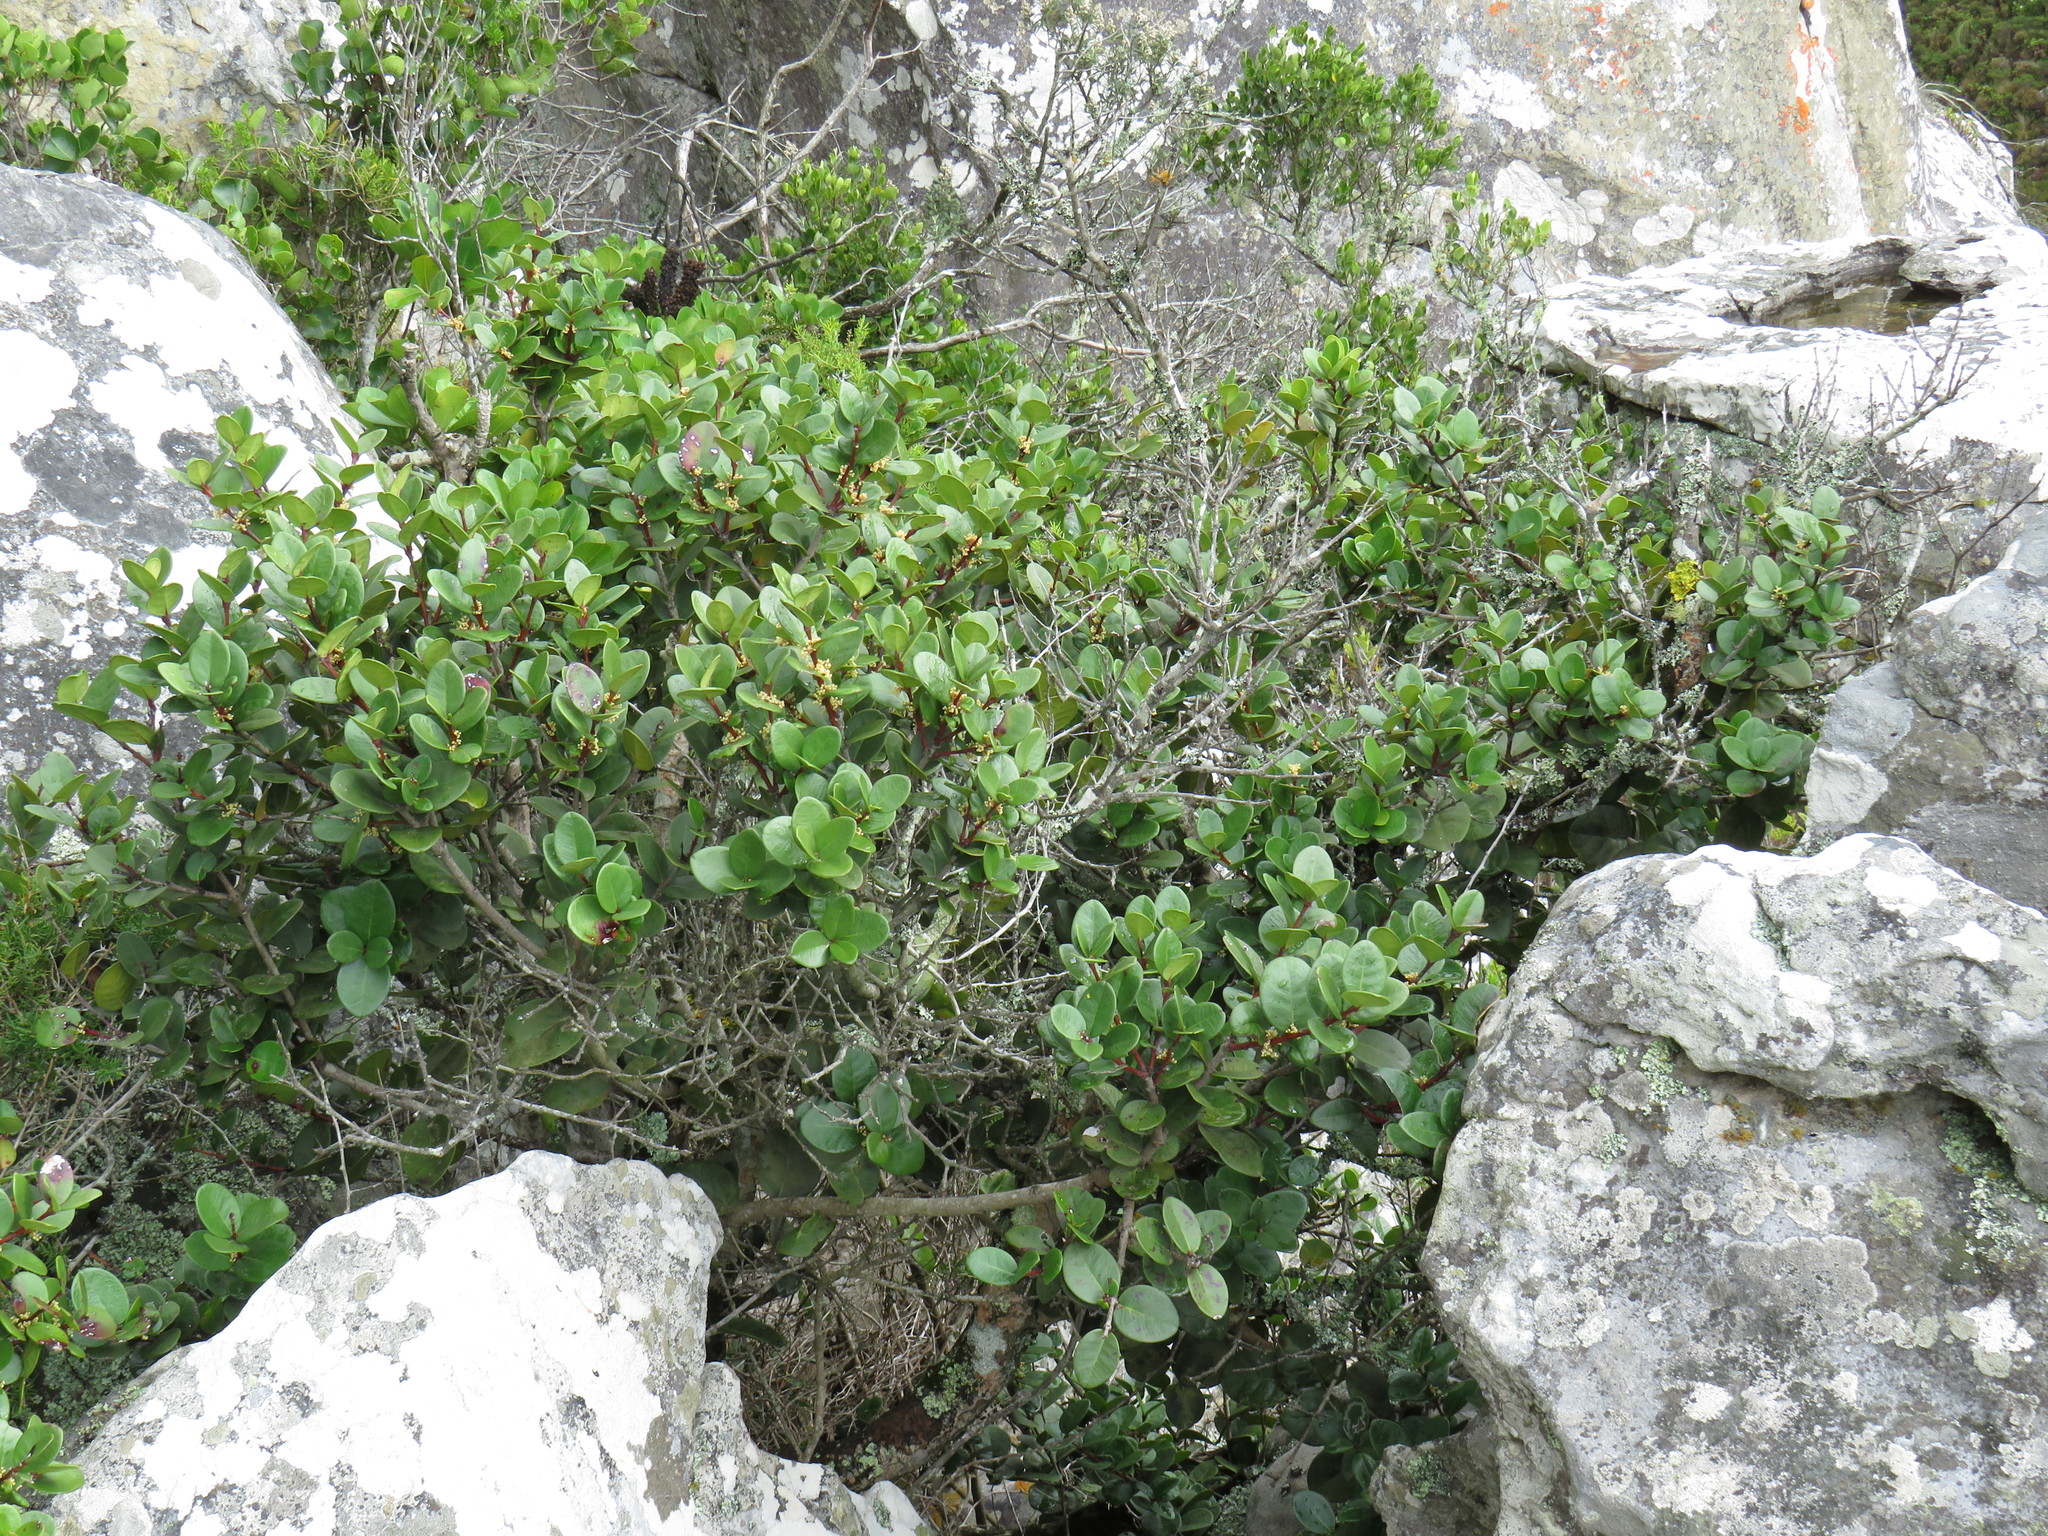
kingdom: Plantae
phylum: Tracheophyta
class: Magnoliopsida
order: Celastrales
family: Celastraceae
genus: Maurocenia
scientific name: Maurocenia frangula
